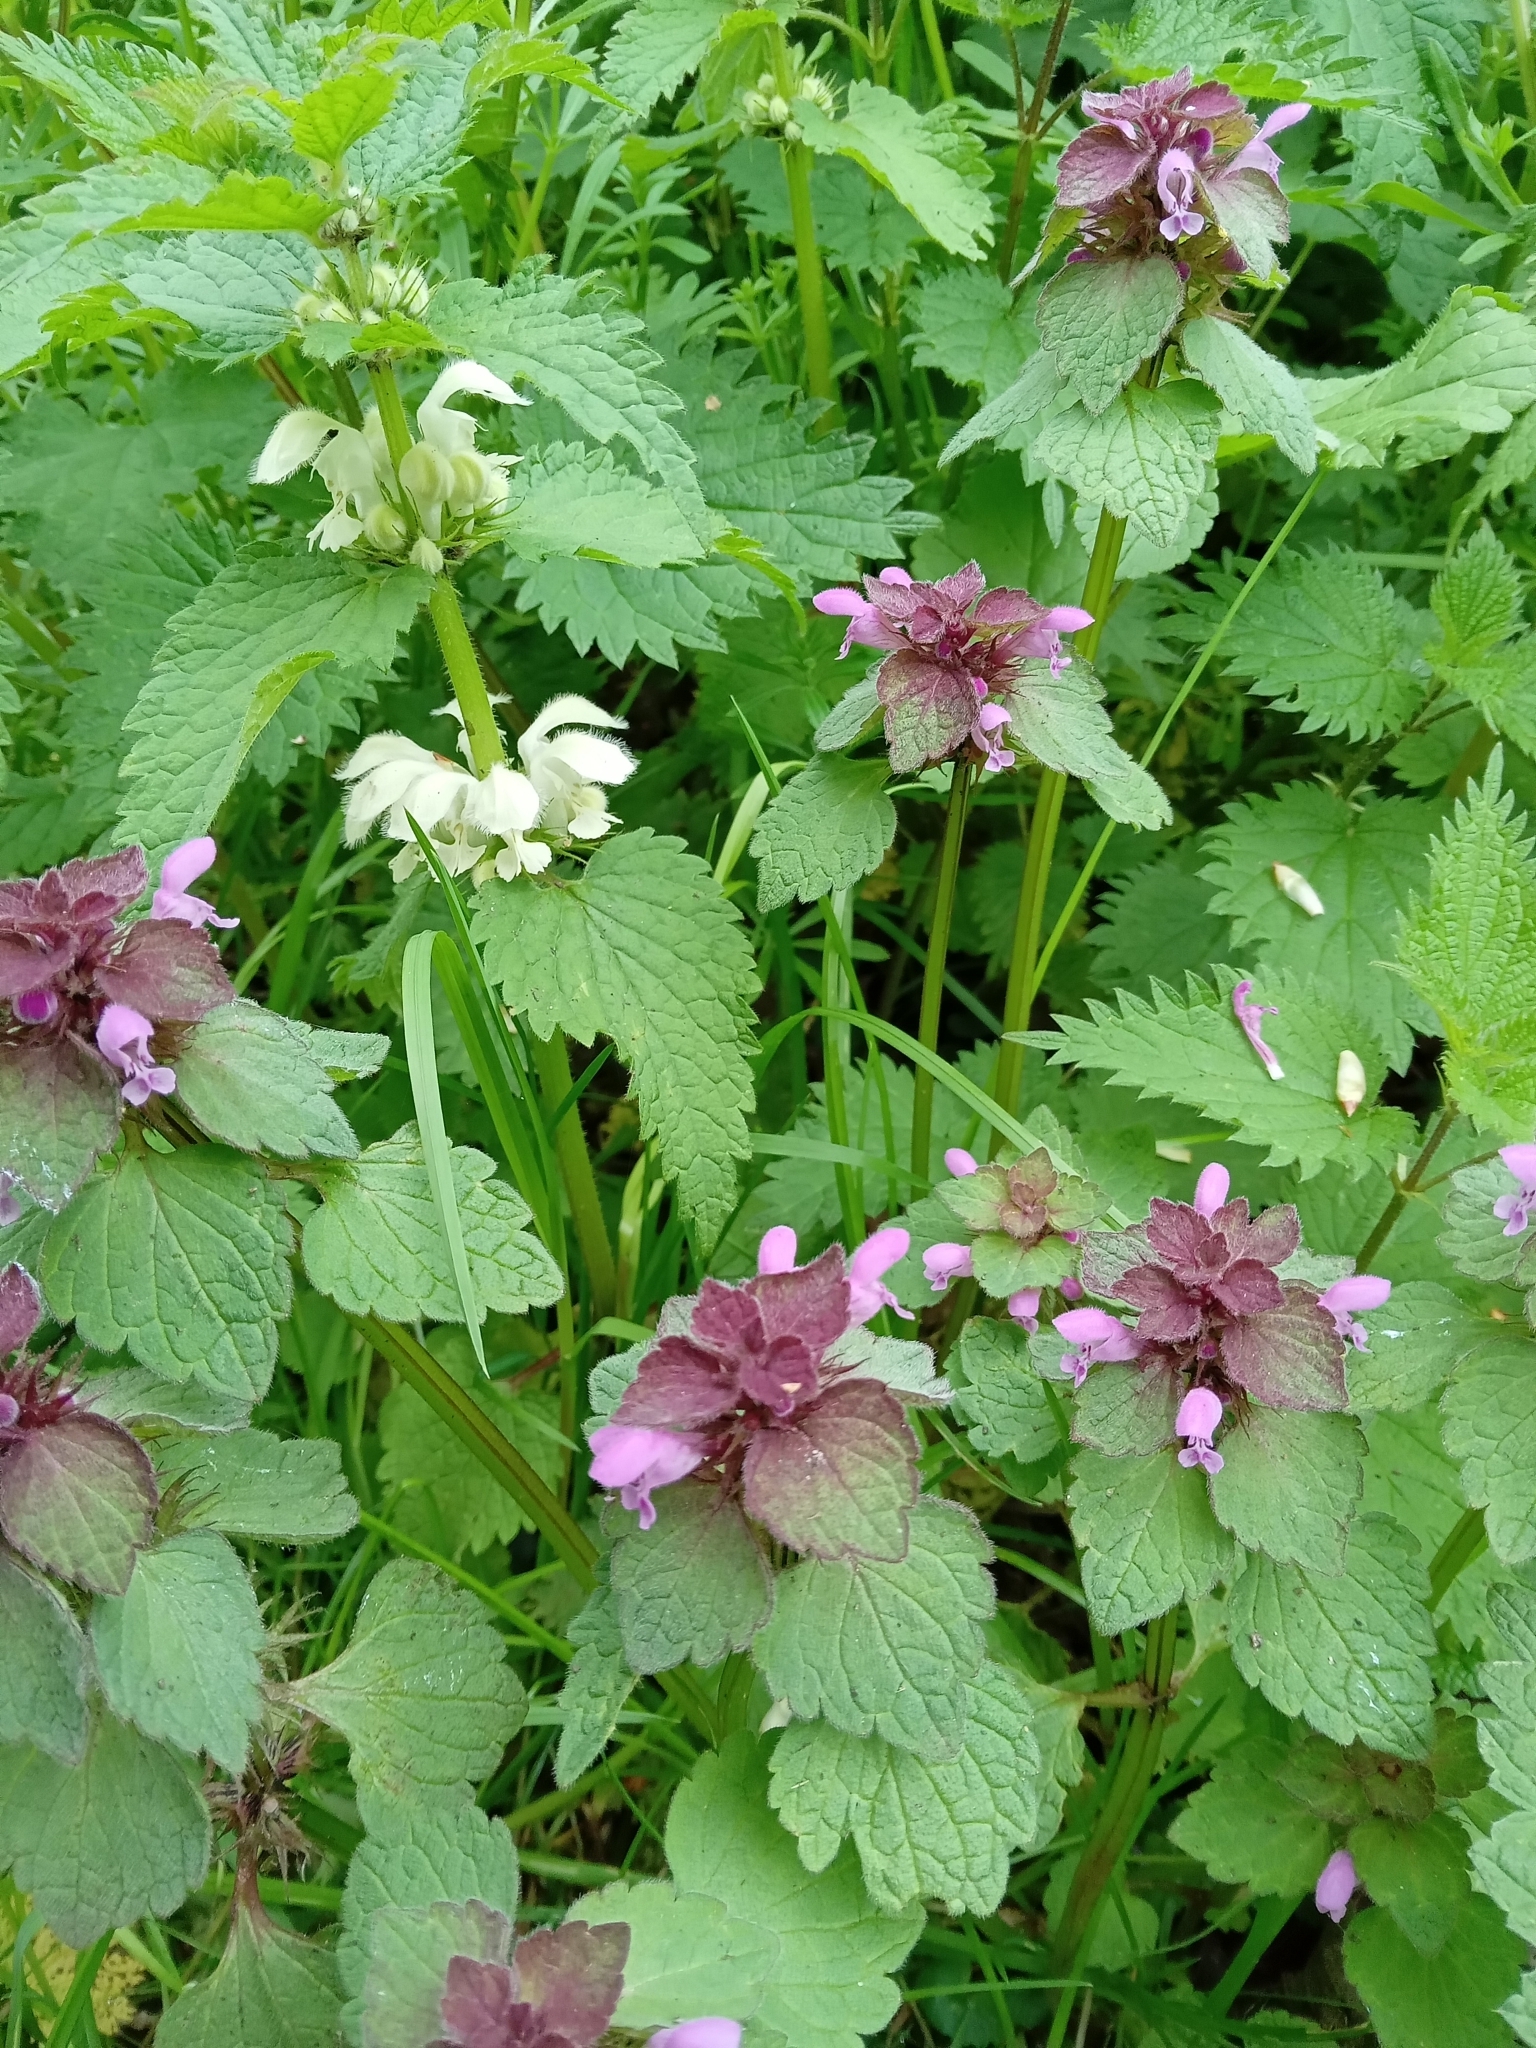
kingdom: Plantae
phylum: Tracheophyta
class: Magnoliopsida
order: Lamiales
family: Lamiaceae
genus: Lamium
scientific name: Lamium purpureum
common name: Red dead-nettle
